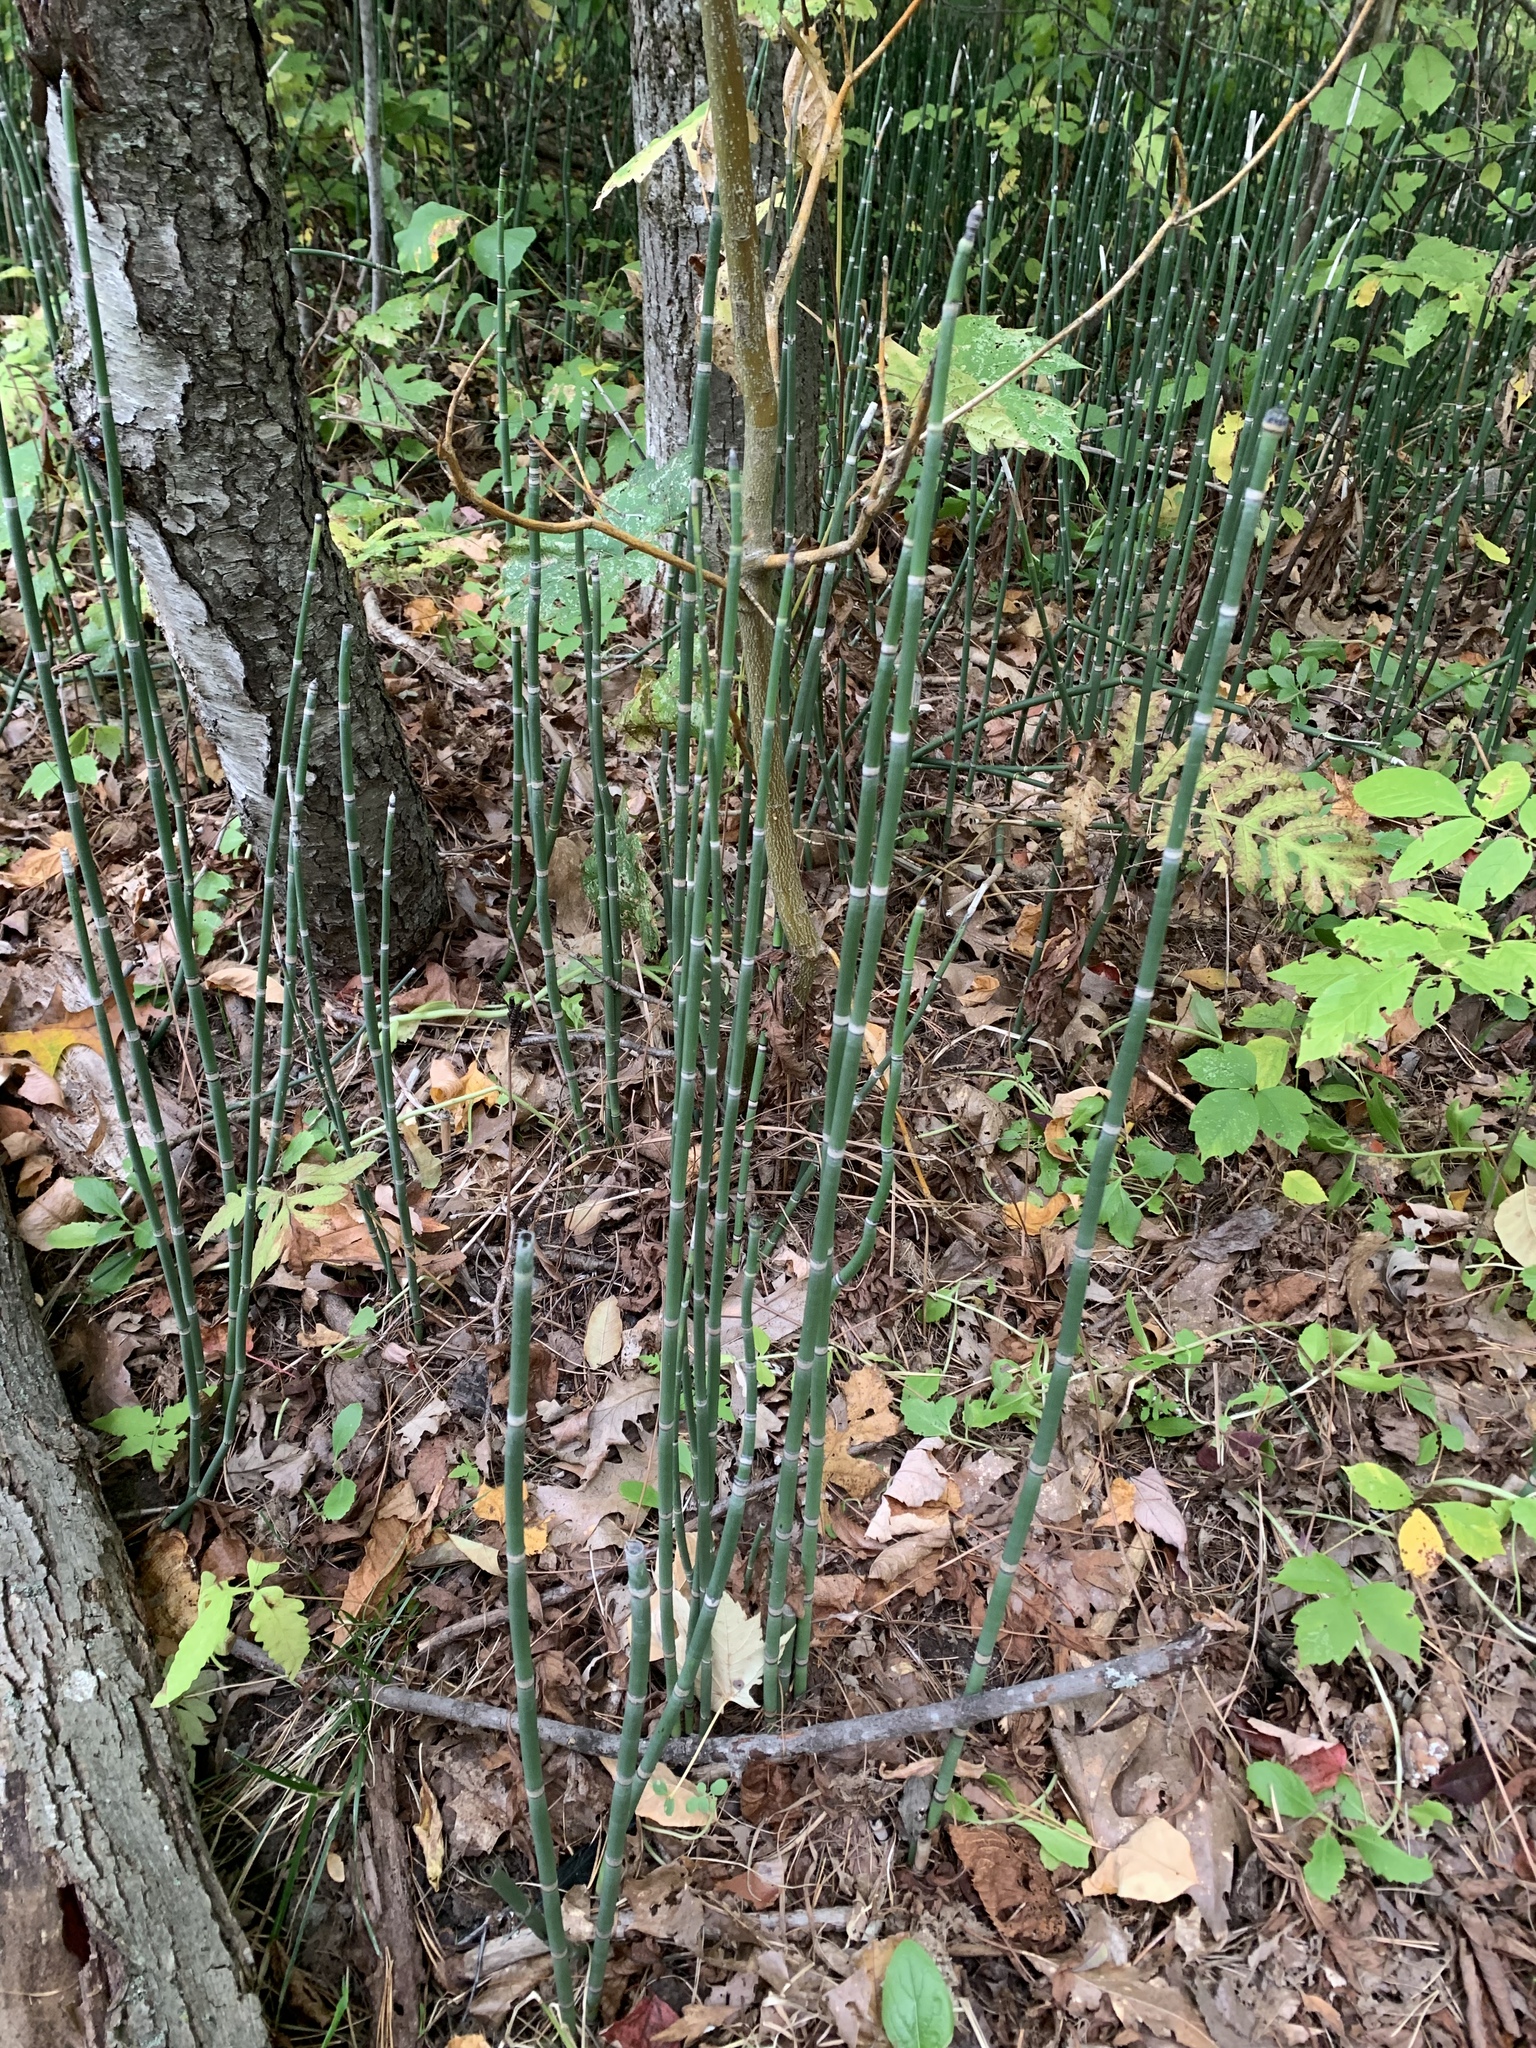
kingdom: Plantae
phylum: Tracheophyta
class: Polypodiopsida
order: Equisetales
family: Equisetaceae
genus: Equisetum
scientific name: Equisetum hyemale
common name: Rough horsetail
